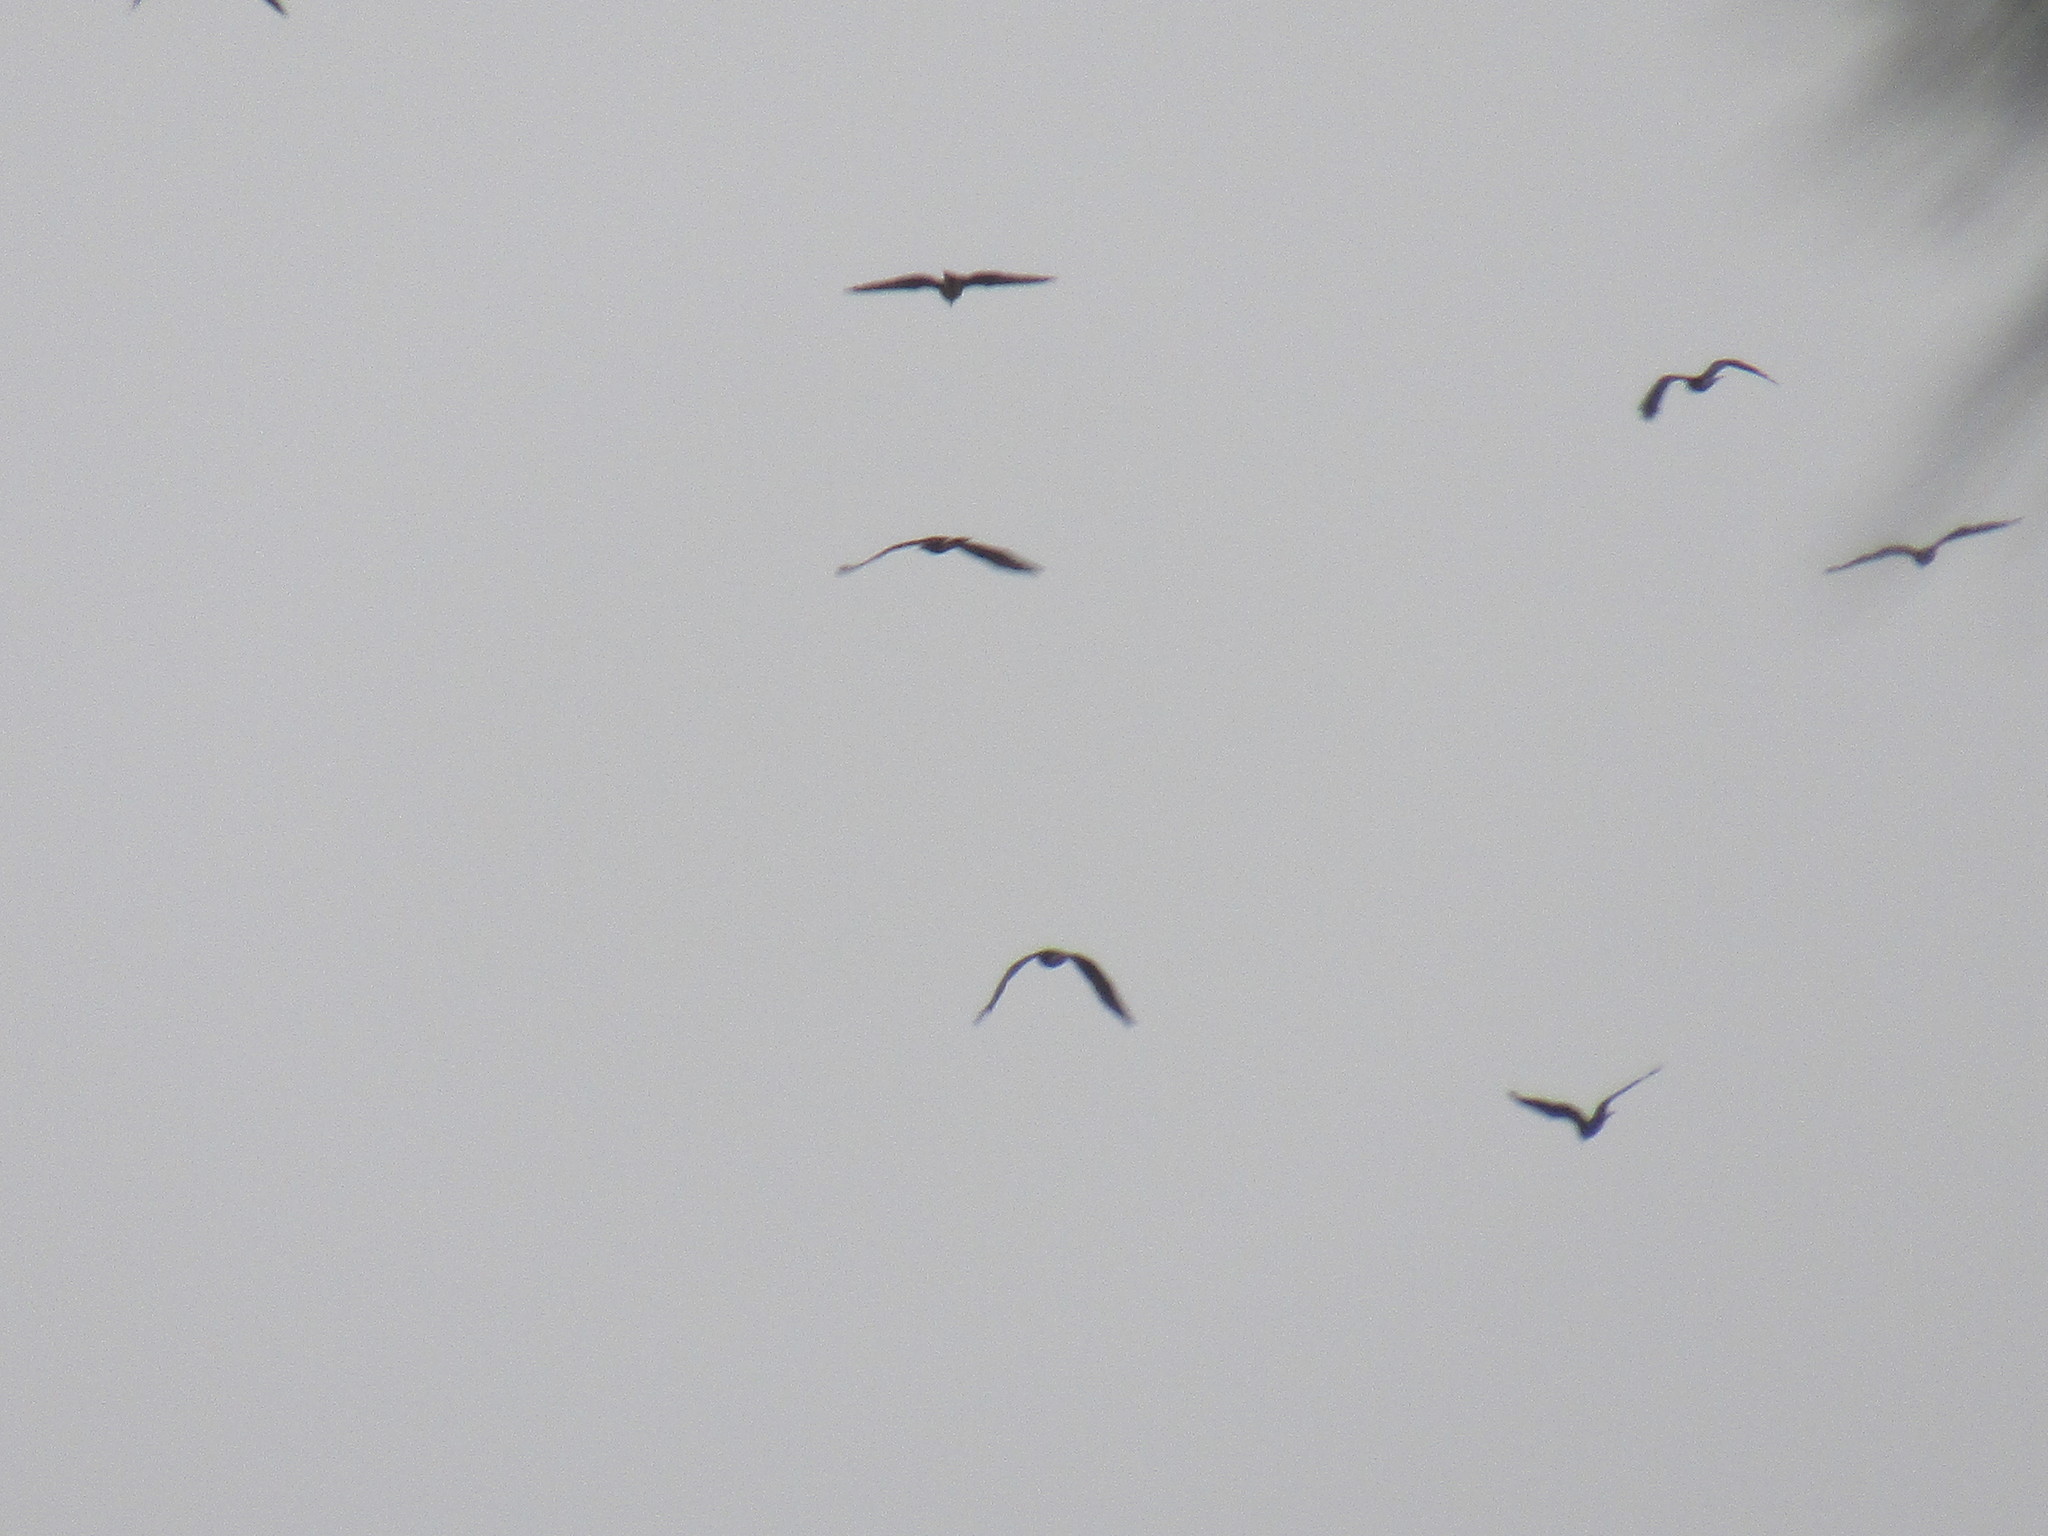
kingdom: Animalia
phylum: Chordata
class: Aves
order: Accipitriformes
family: Accipitridae
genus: Rostrhamus
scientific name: Rostrhamus sociabilis
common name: Snail kite
